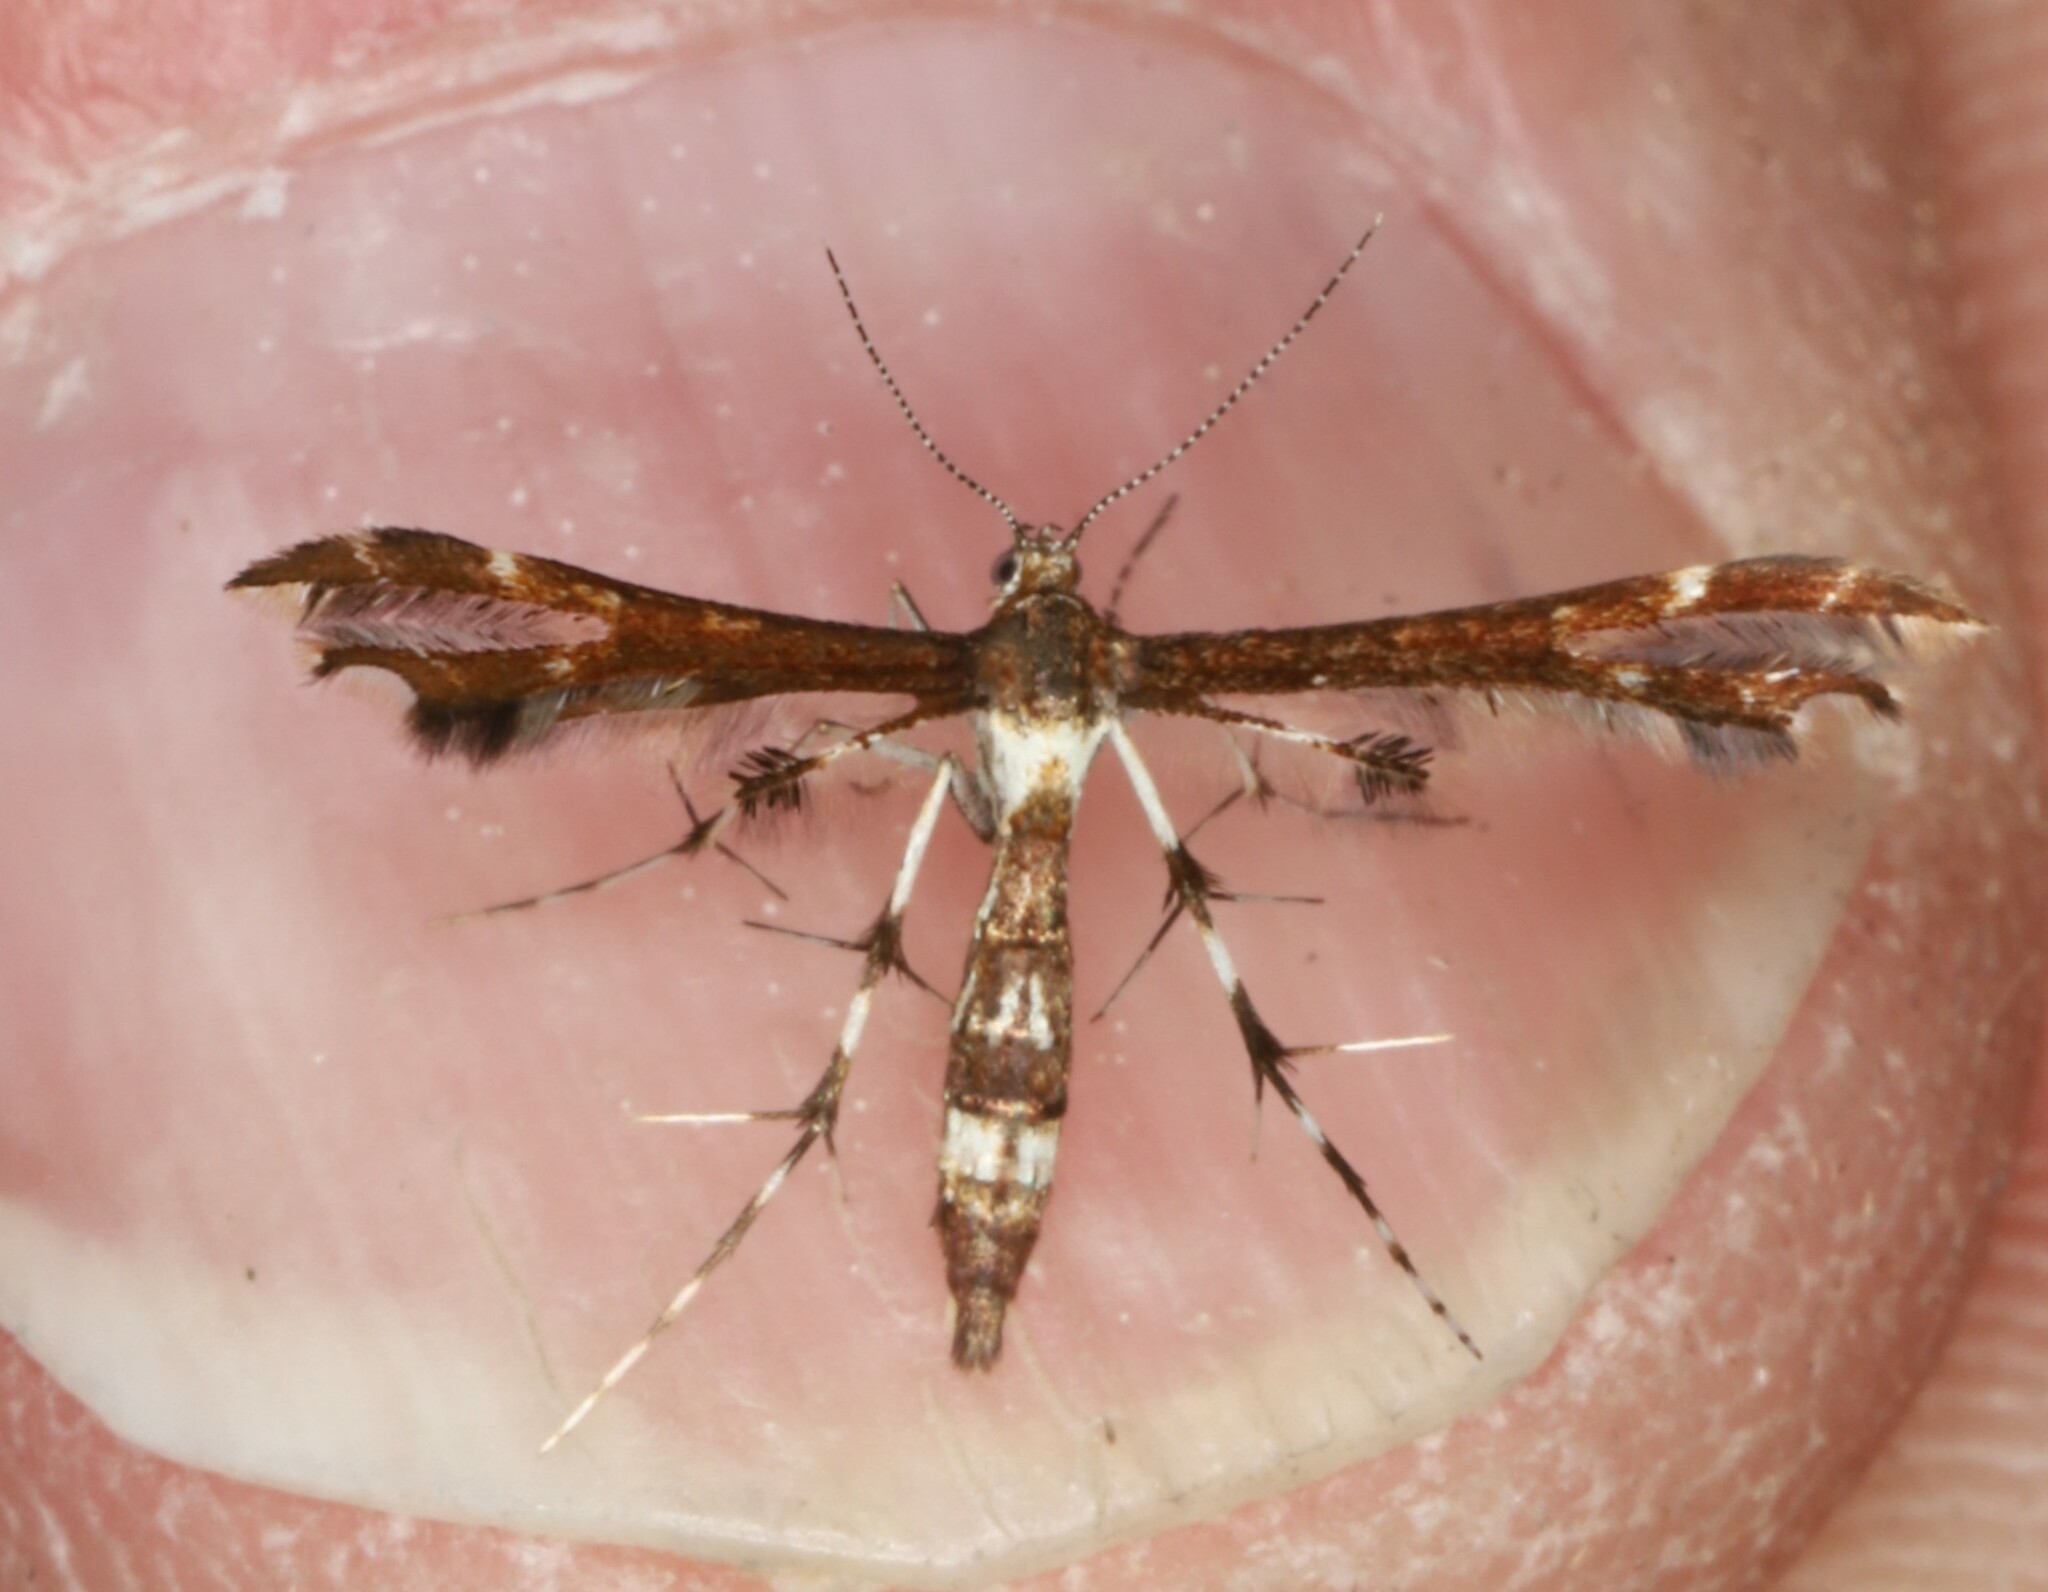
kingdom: Animalia
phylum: Arthropoda
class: Insecta
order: Lepidoptera
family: Pterophoridae
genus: Geina
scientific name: Geina
